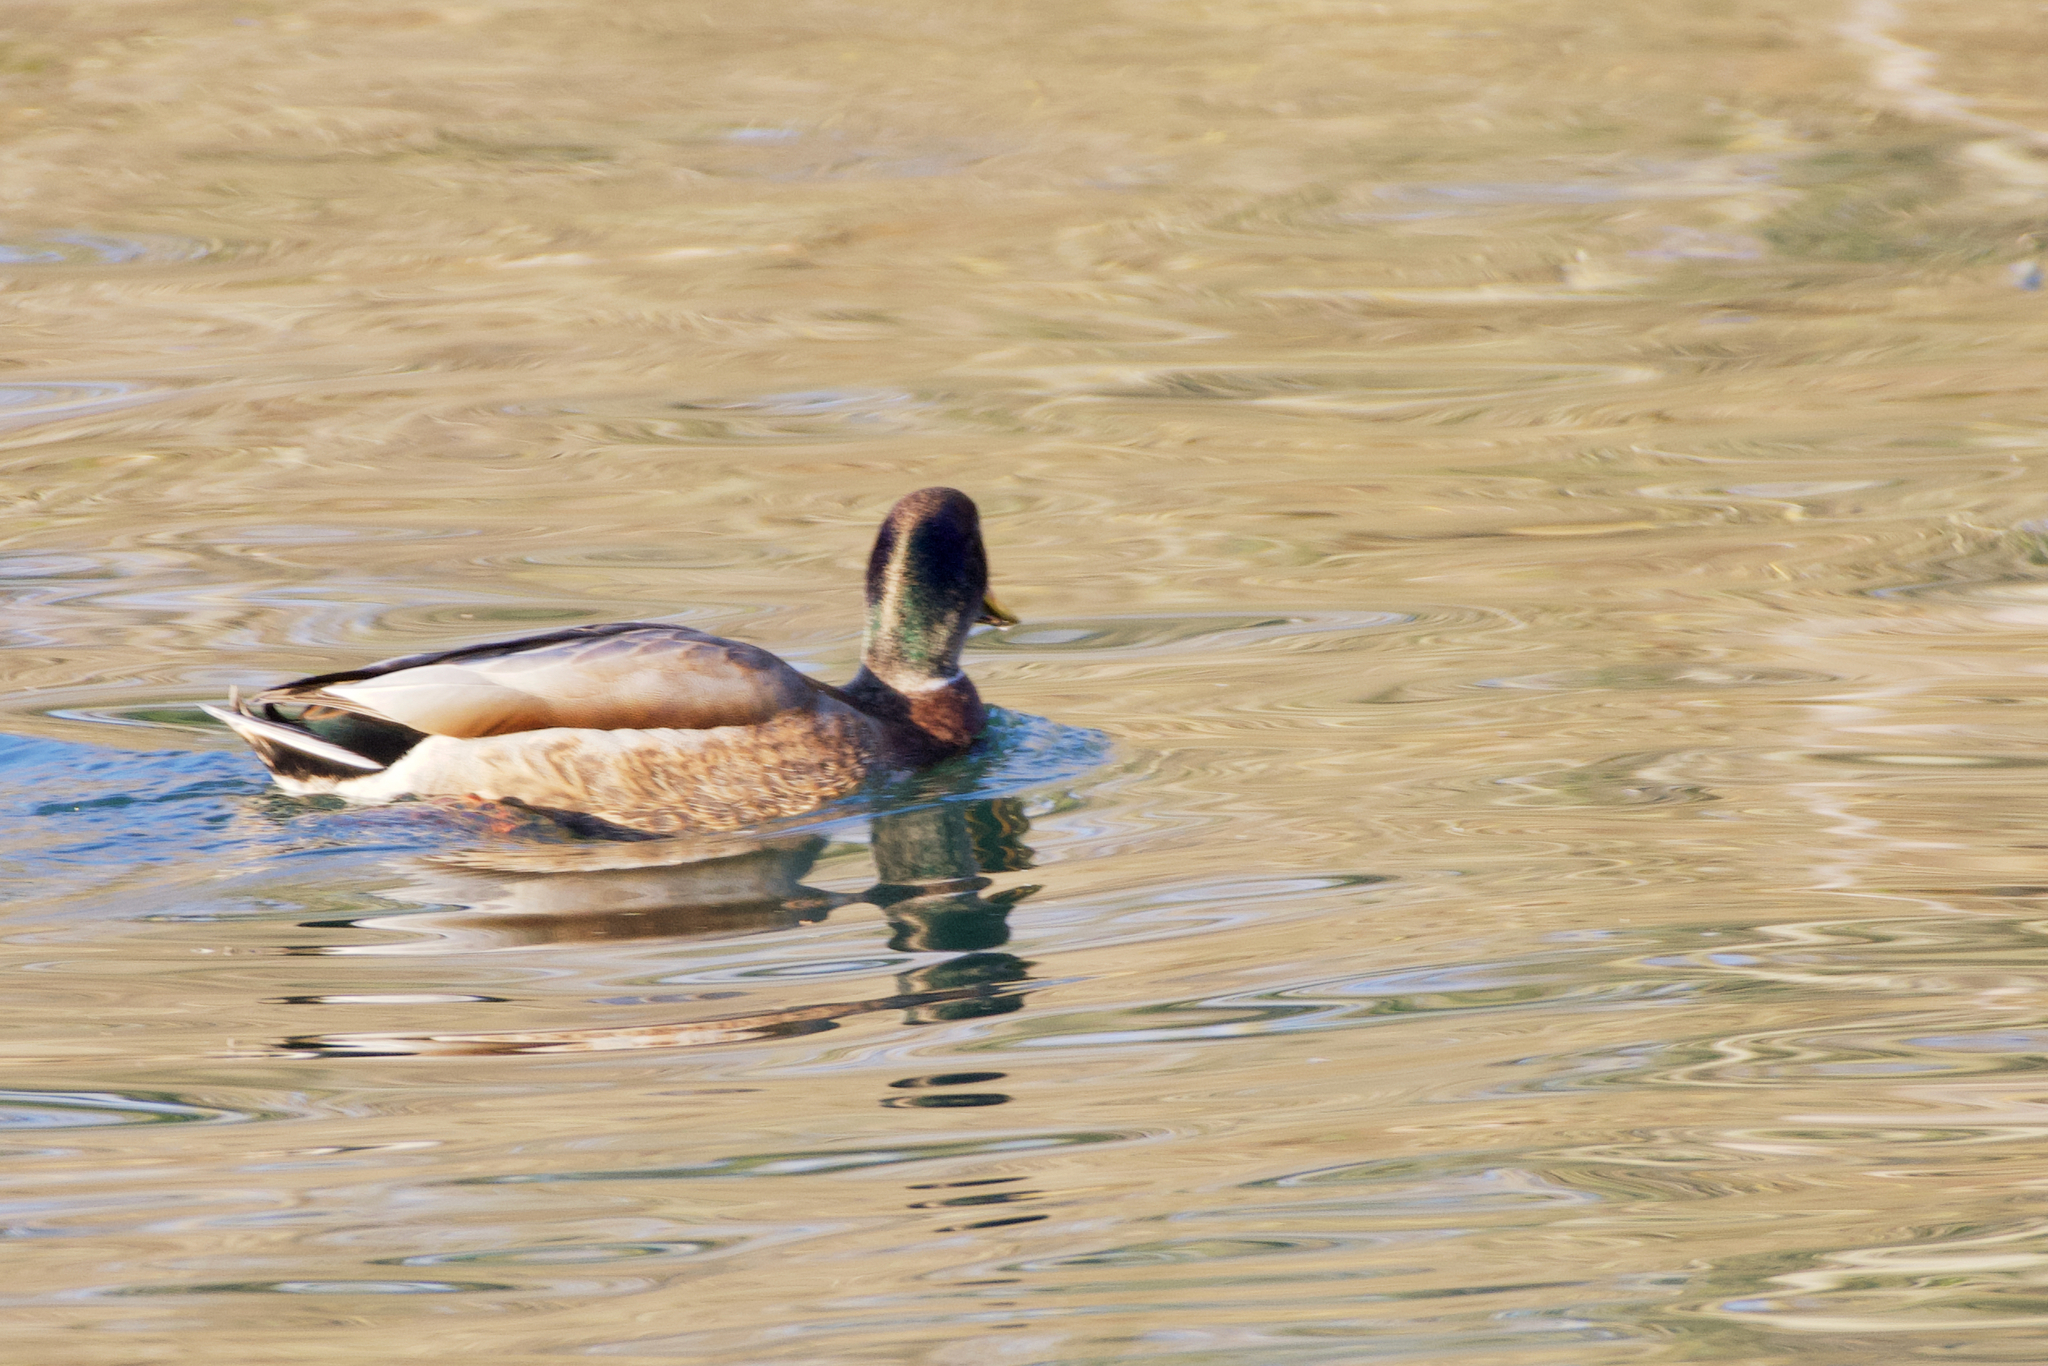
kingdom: Animalia
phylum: Chordata
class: Aves
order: Anseriformes
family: Anatidae
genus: Anas
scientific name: Anas platyrhynchos
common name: Mallard
